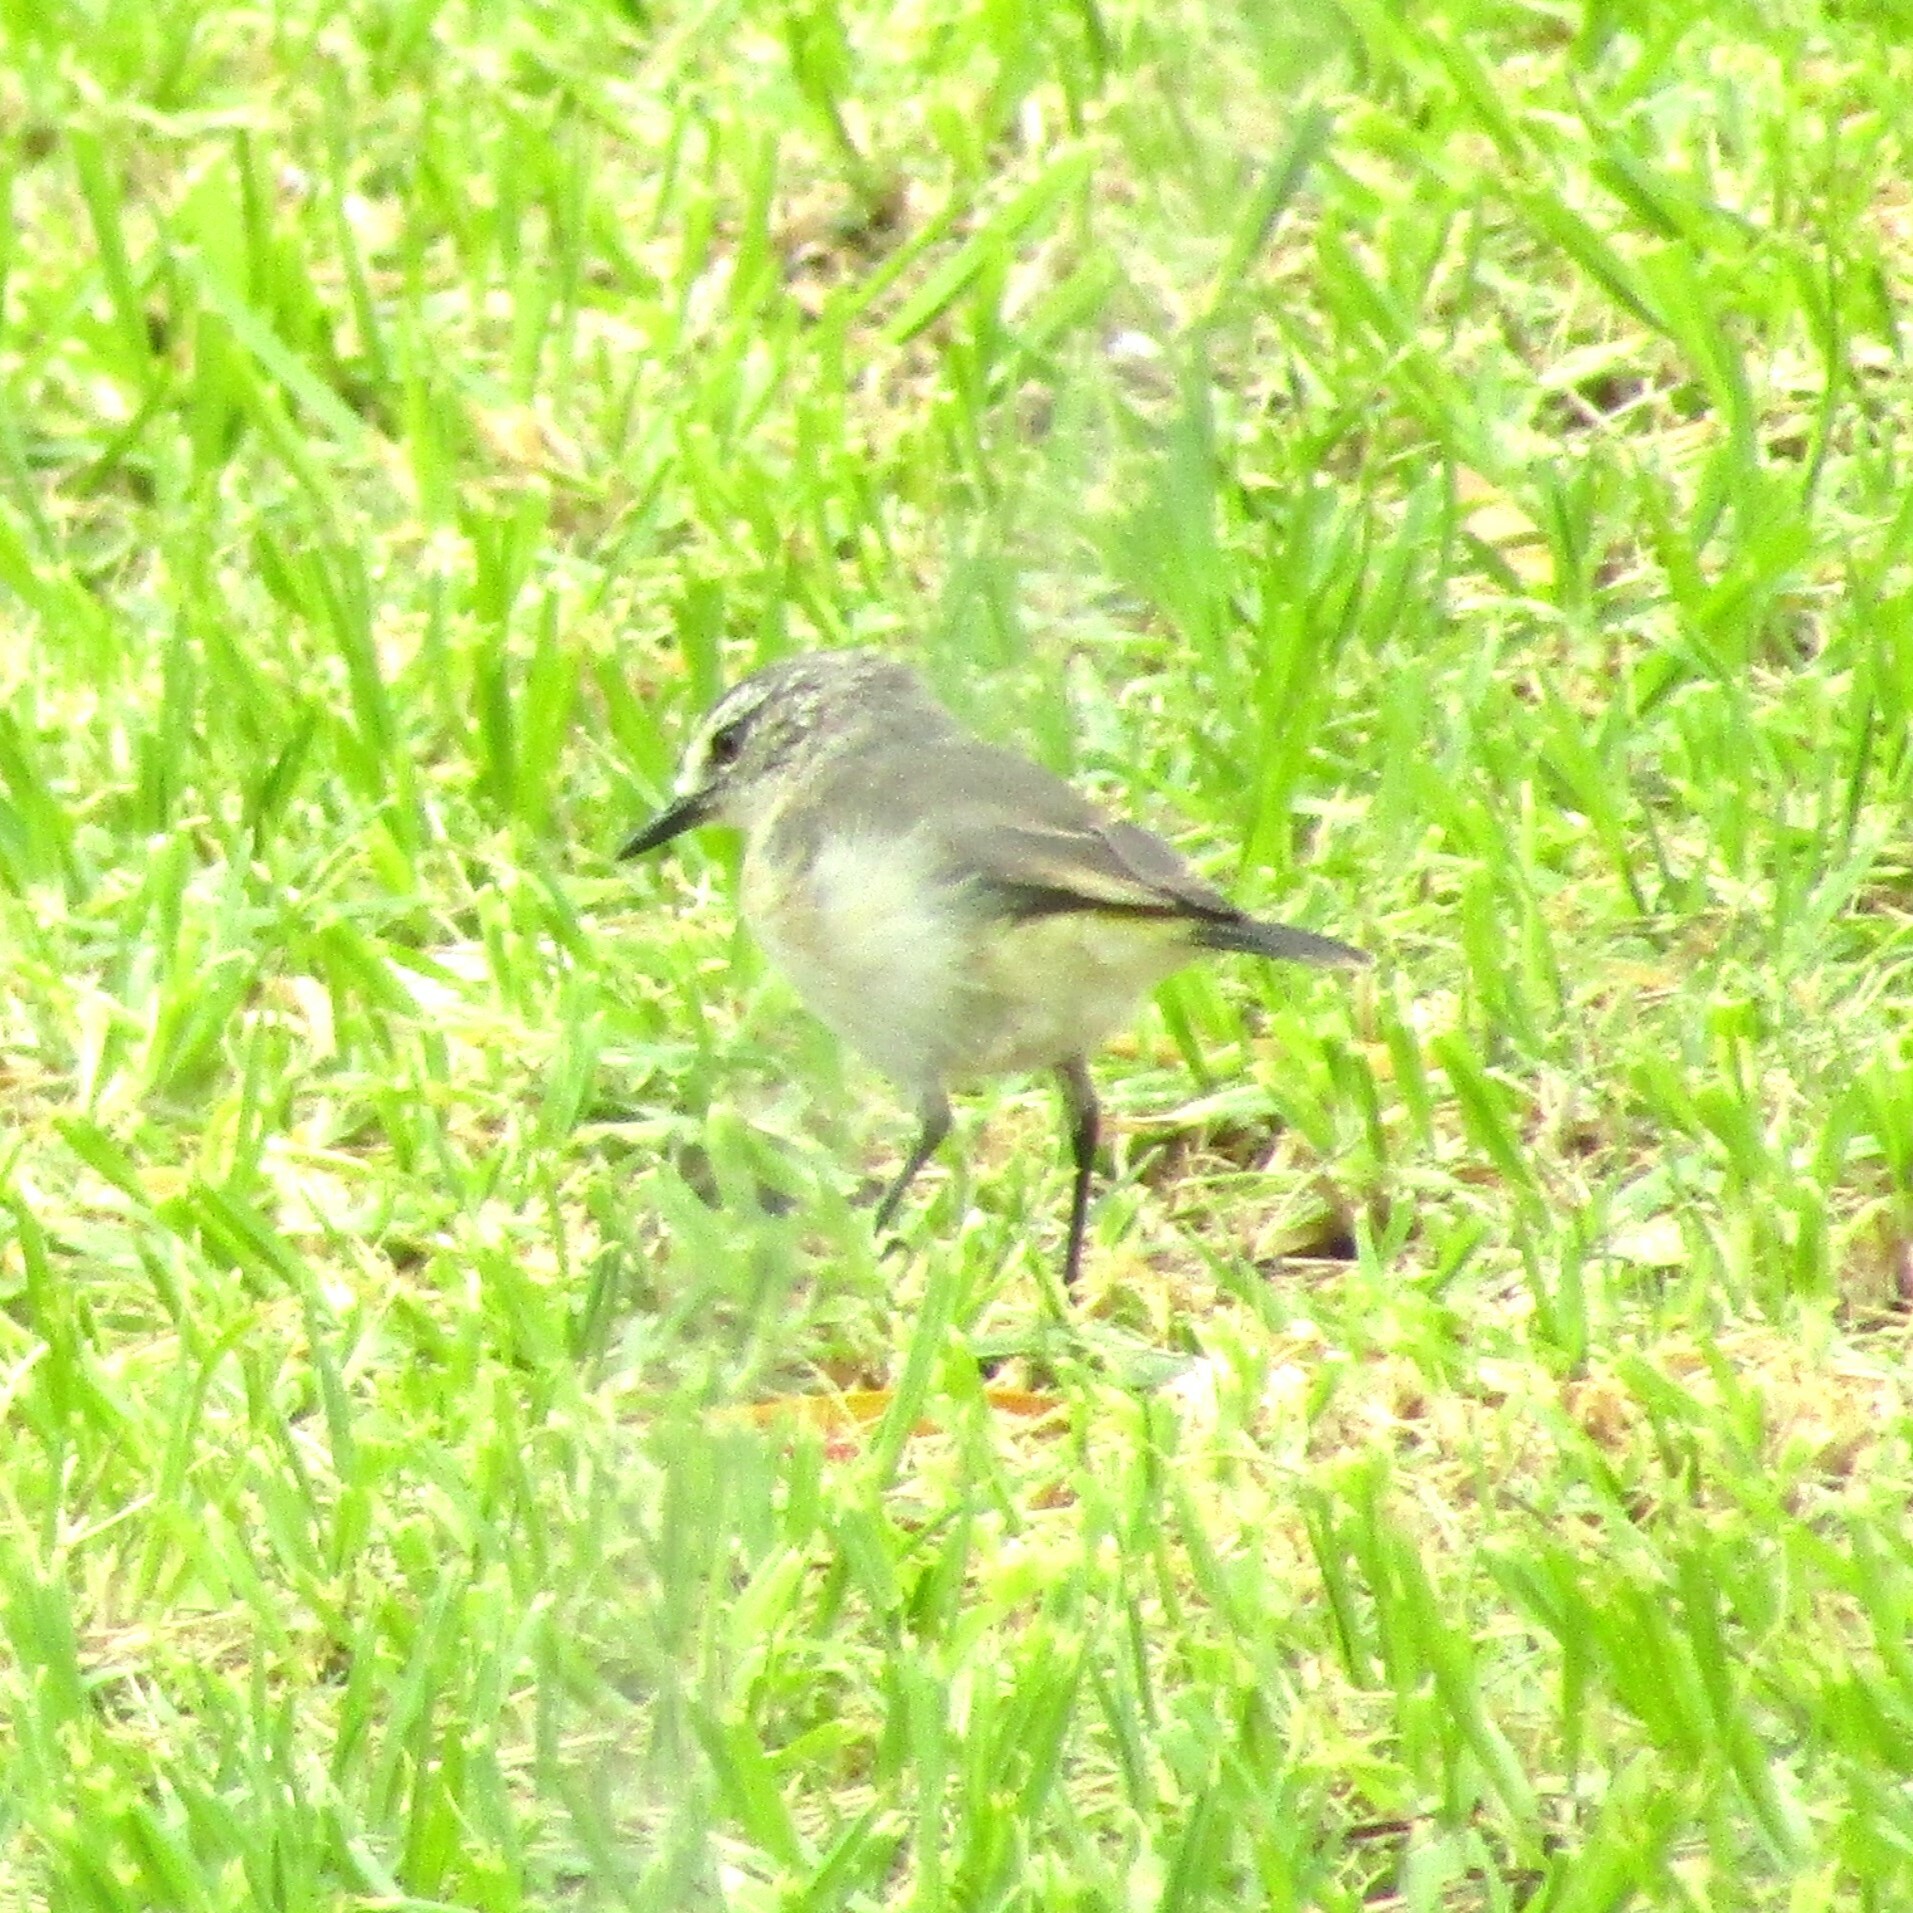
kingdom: Animalia
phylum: Chordata
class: Aves
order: Passeriformes
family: Acanthizidae
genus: Acanthiza
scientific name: Acanthiza chrysorrhoa
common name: Yellow-rumped thornbill
